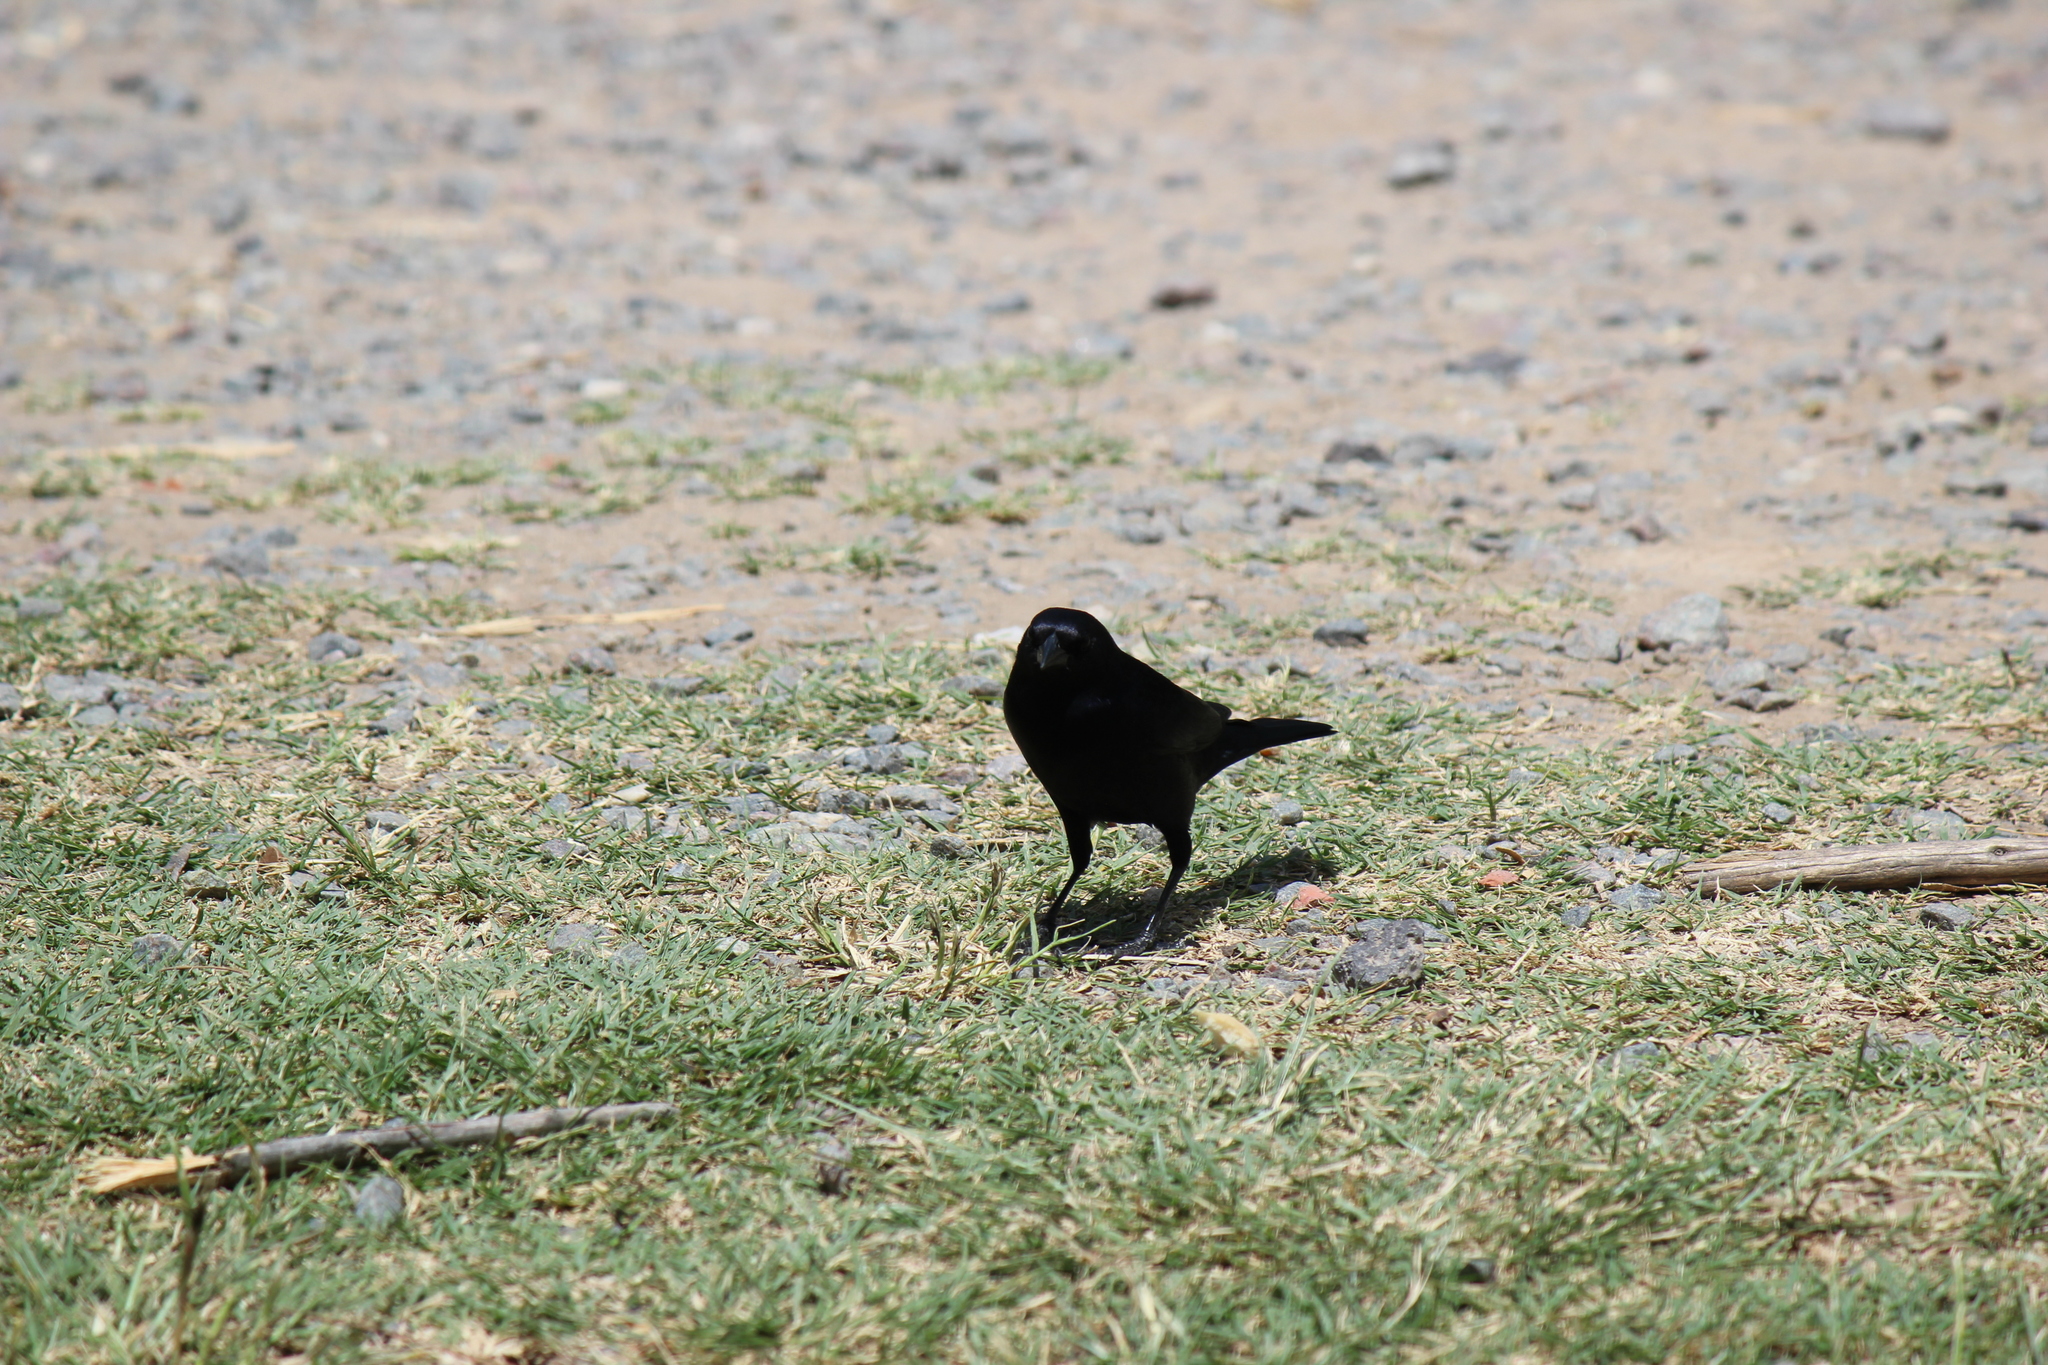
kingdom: Animalia
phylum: Chordata
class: Aves
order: Passeriformes
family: Icteridae
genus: Molothrus
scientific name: Molothrus bonariensis
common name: Shiny cowbird
